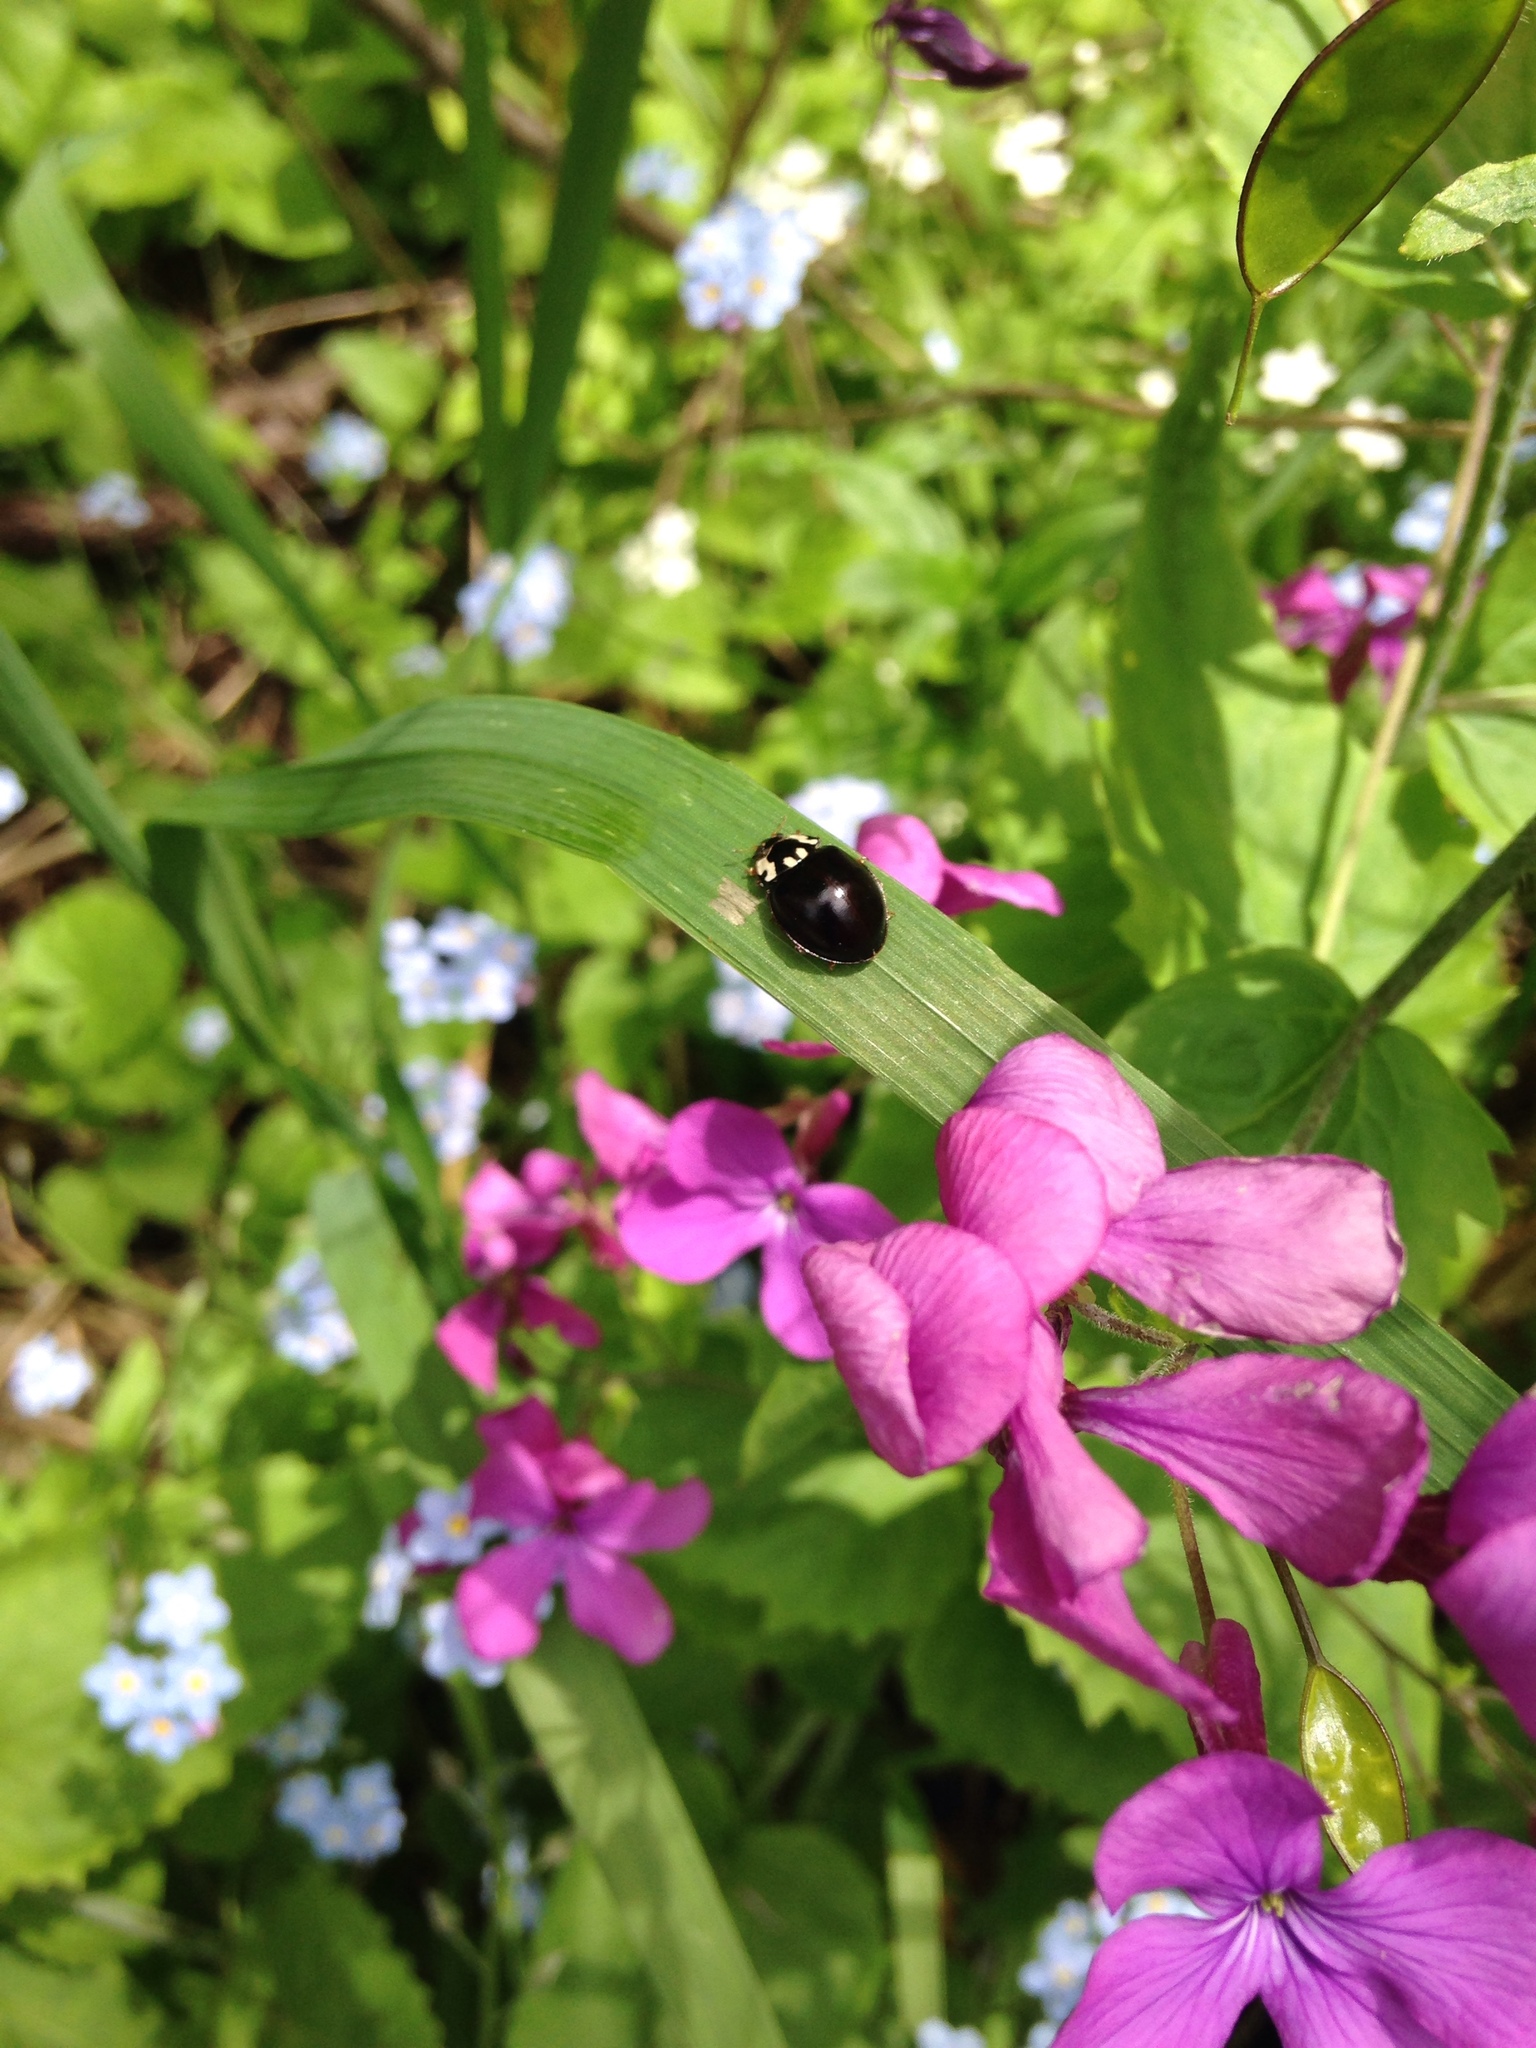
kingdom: Animalia
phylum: Arthropoda
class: Insecta
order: Coleoptera
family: Coccinellidae
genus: Anatis
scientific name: Anatis labiculata
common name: Fifteen-spotted lady beetle
